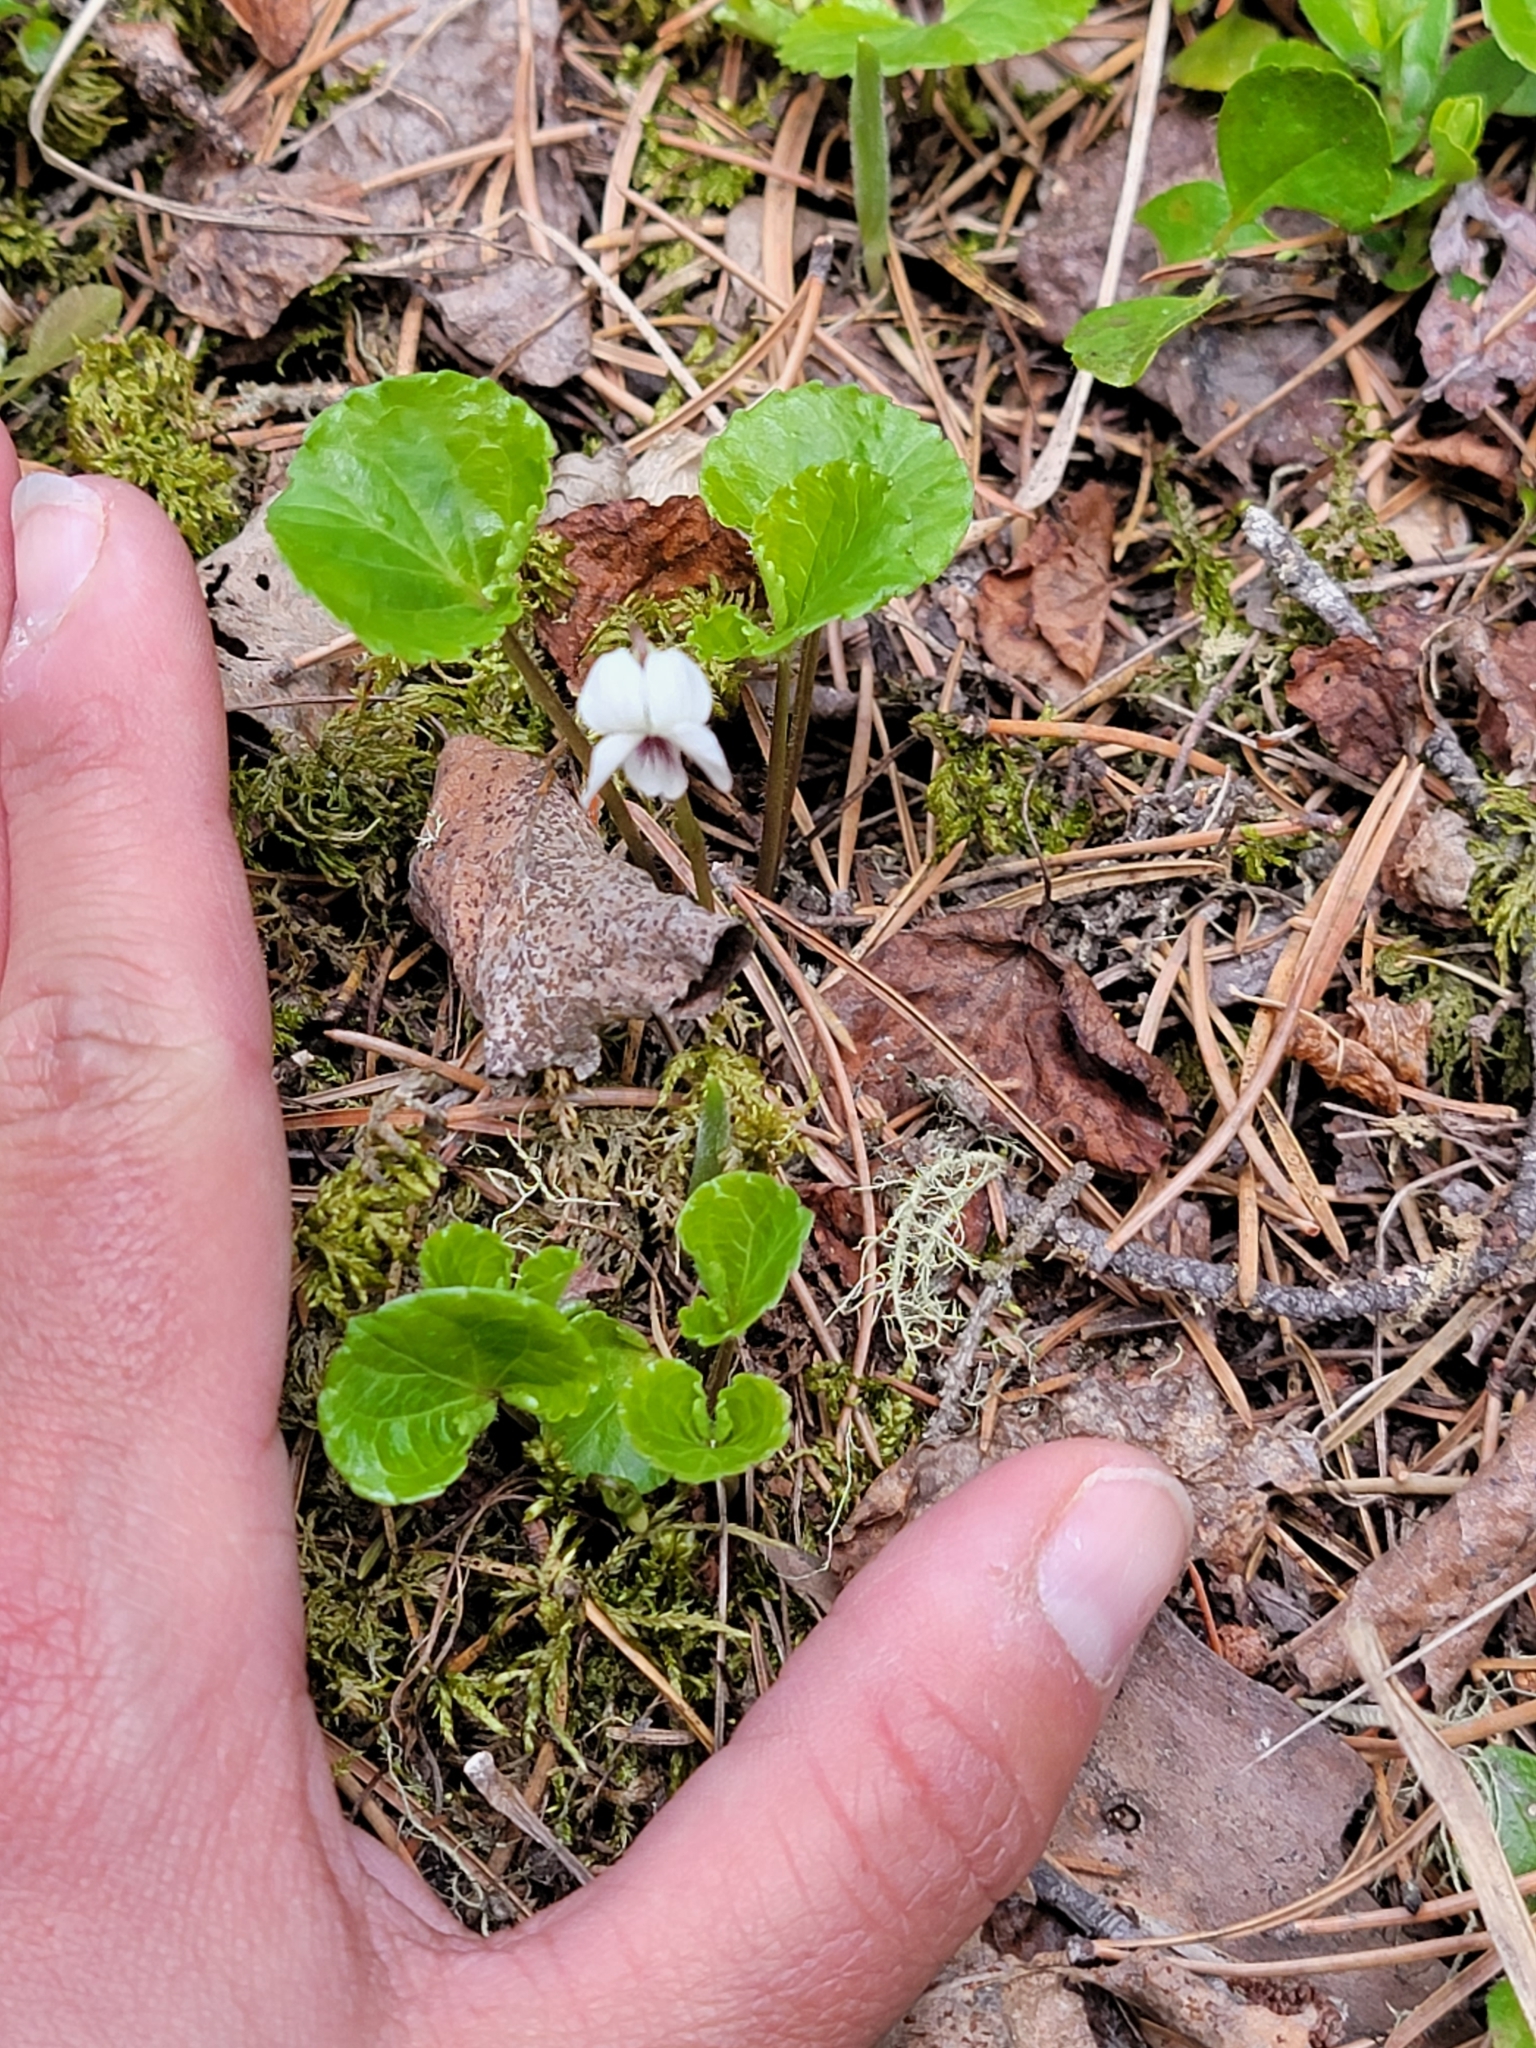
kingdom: Plantae
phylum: Tracheophyta
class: Magnoliopsida
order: Malpighiales
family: Violaceae
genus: Viola
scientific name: Viola renifolia
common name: Kidney-leaf violet
